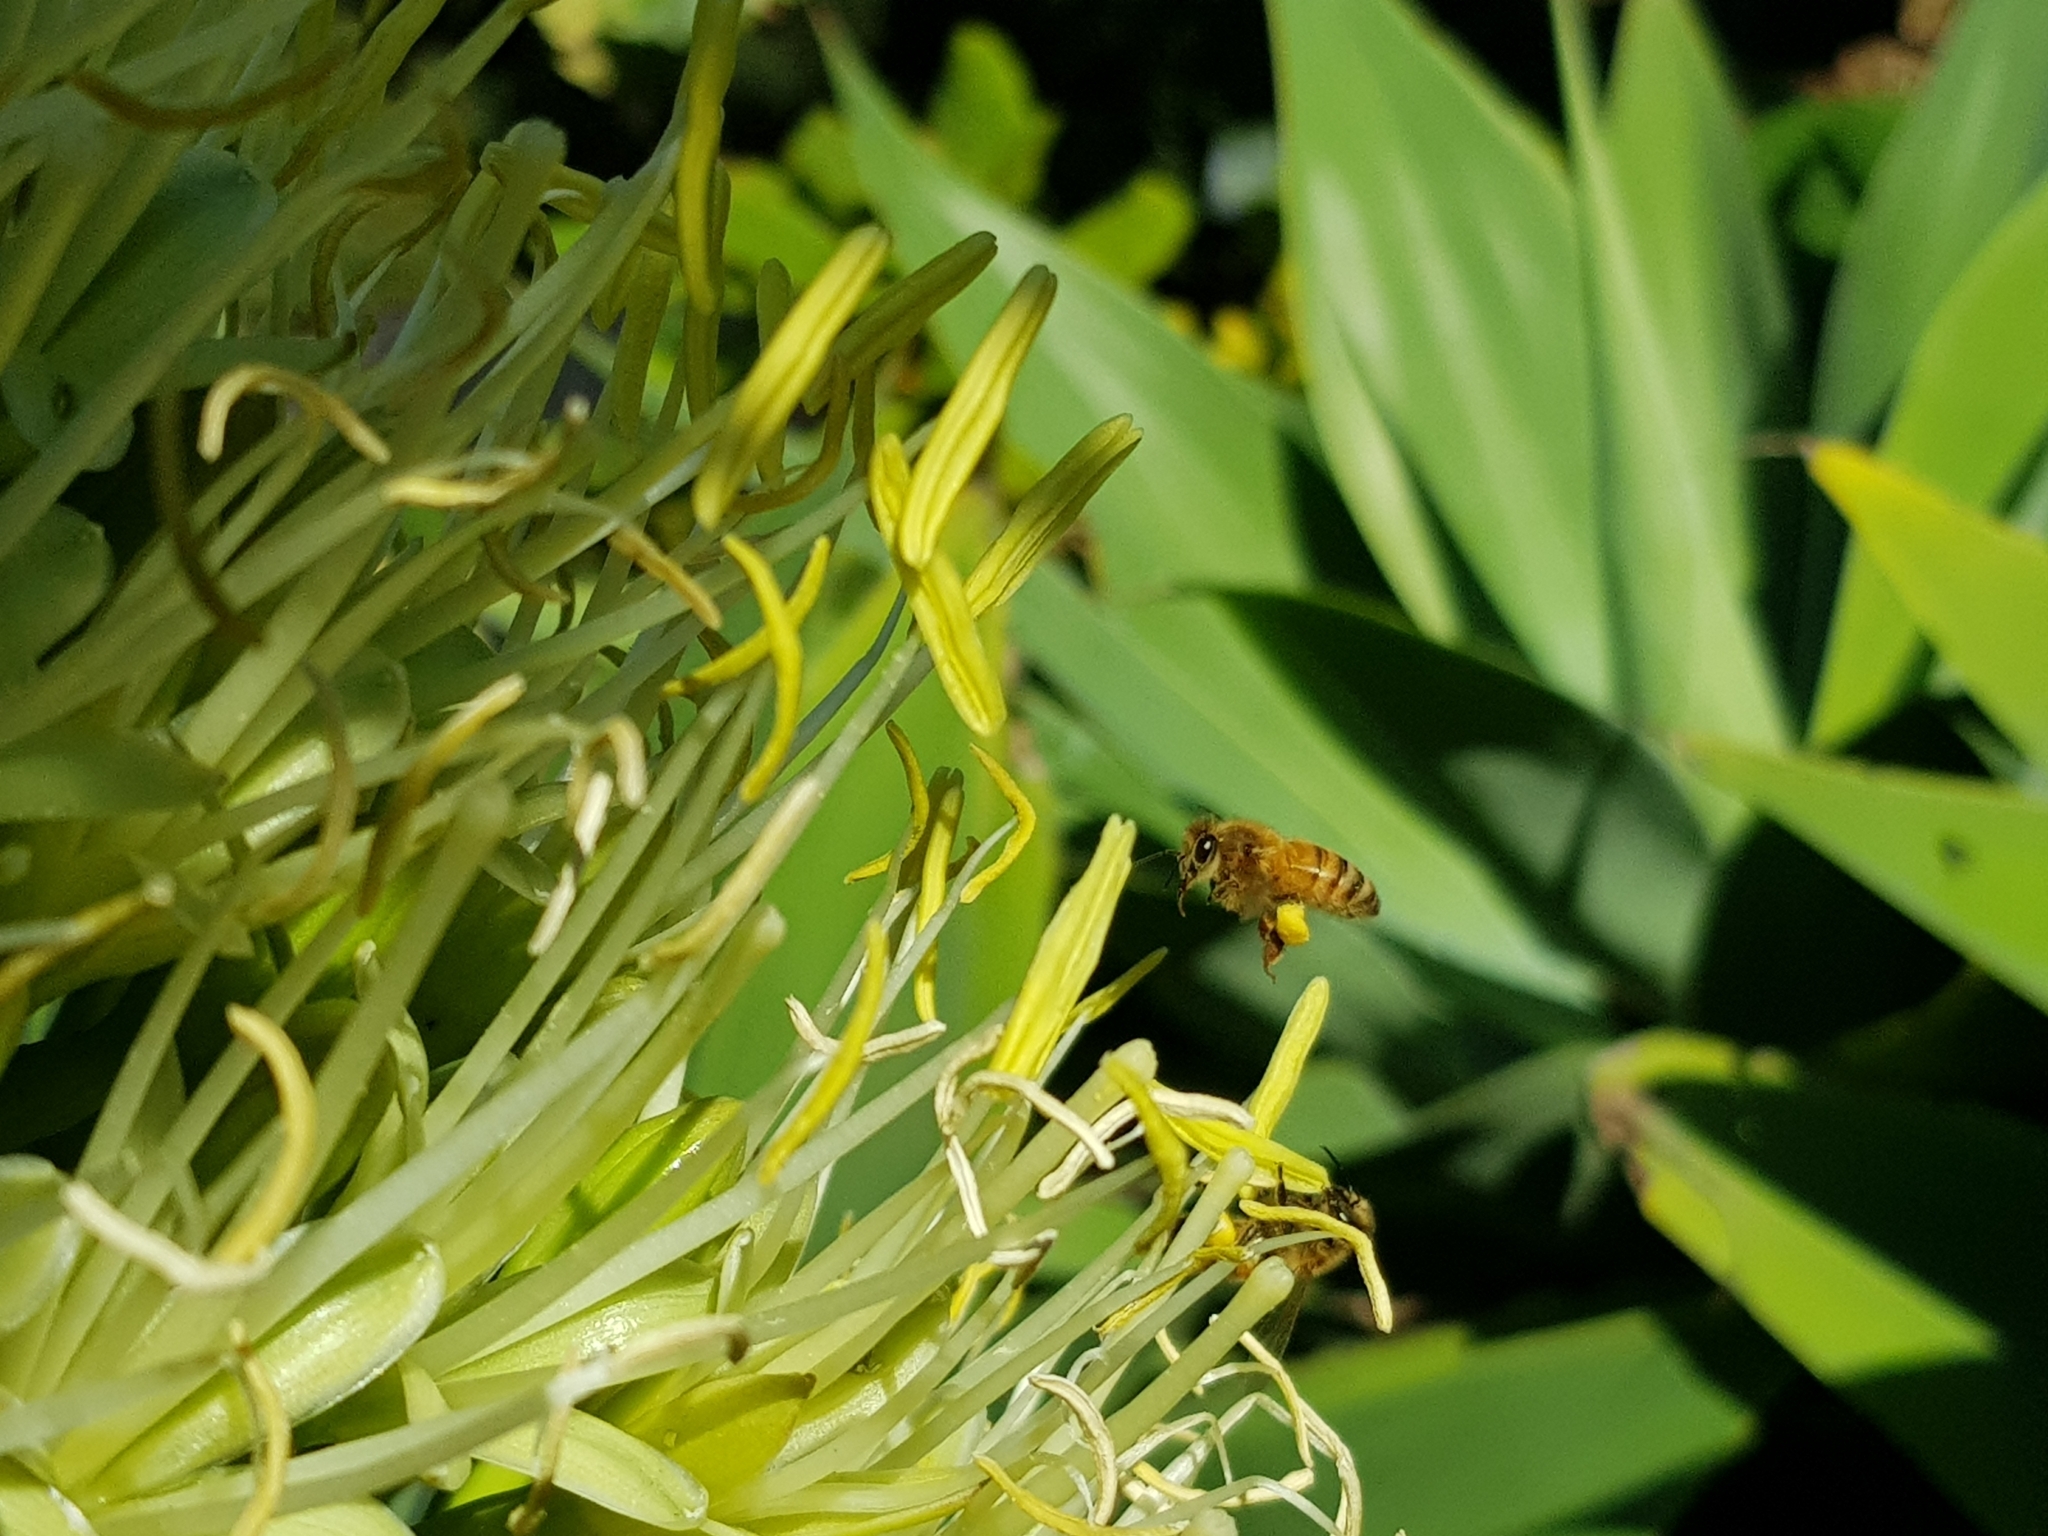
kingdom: Animalia
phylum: Arthropoda
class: Insecta
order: Hymenoptera
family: Apidae
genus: Apis
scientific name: Apis mellifera
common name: Honey bee
